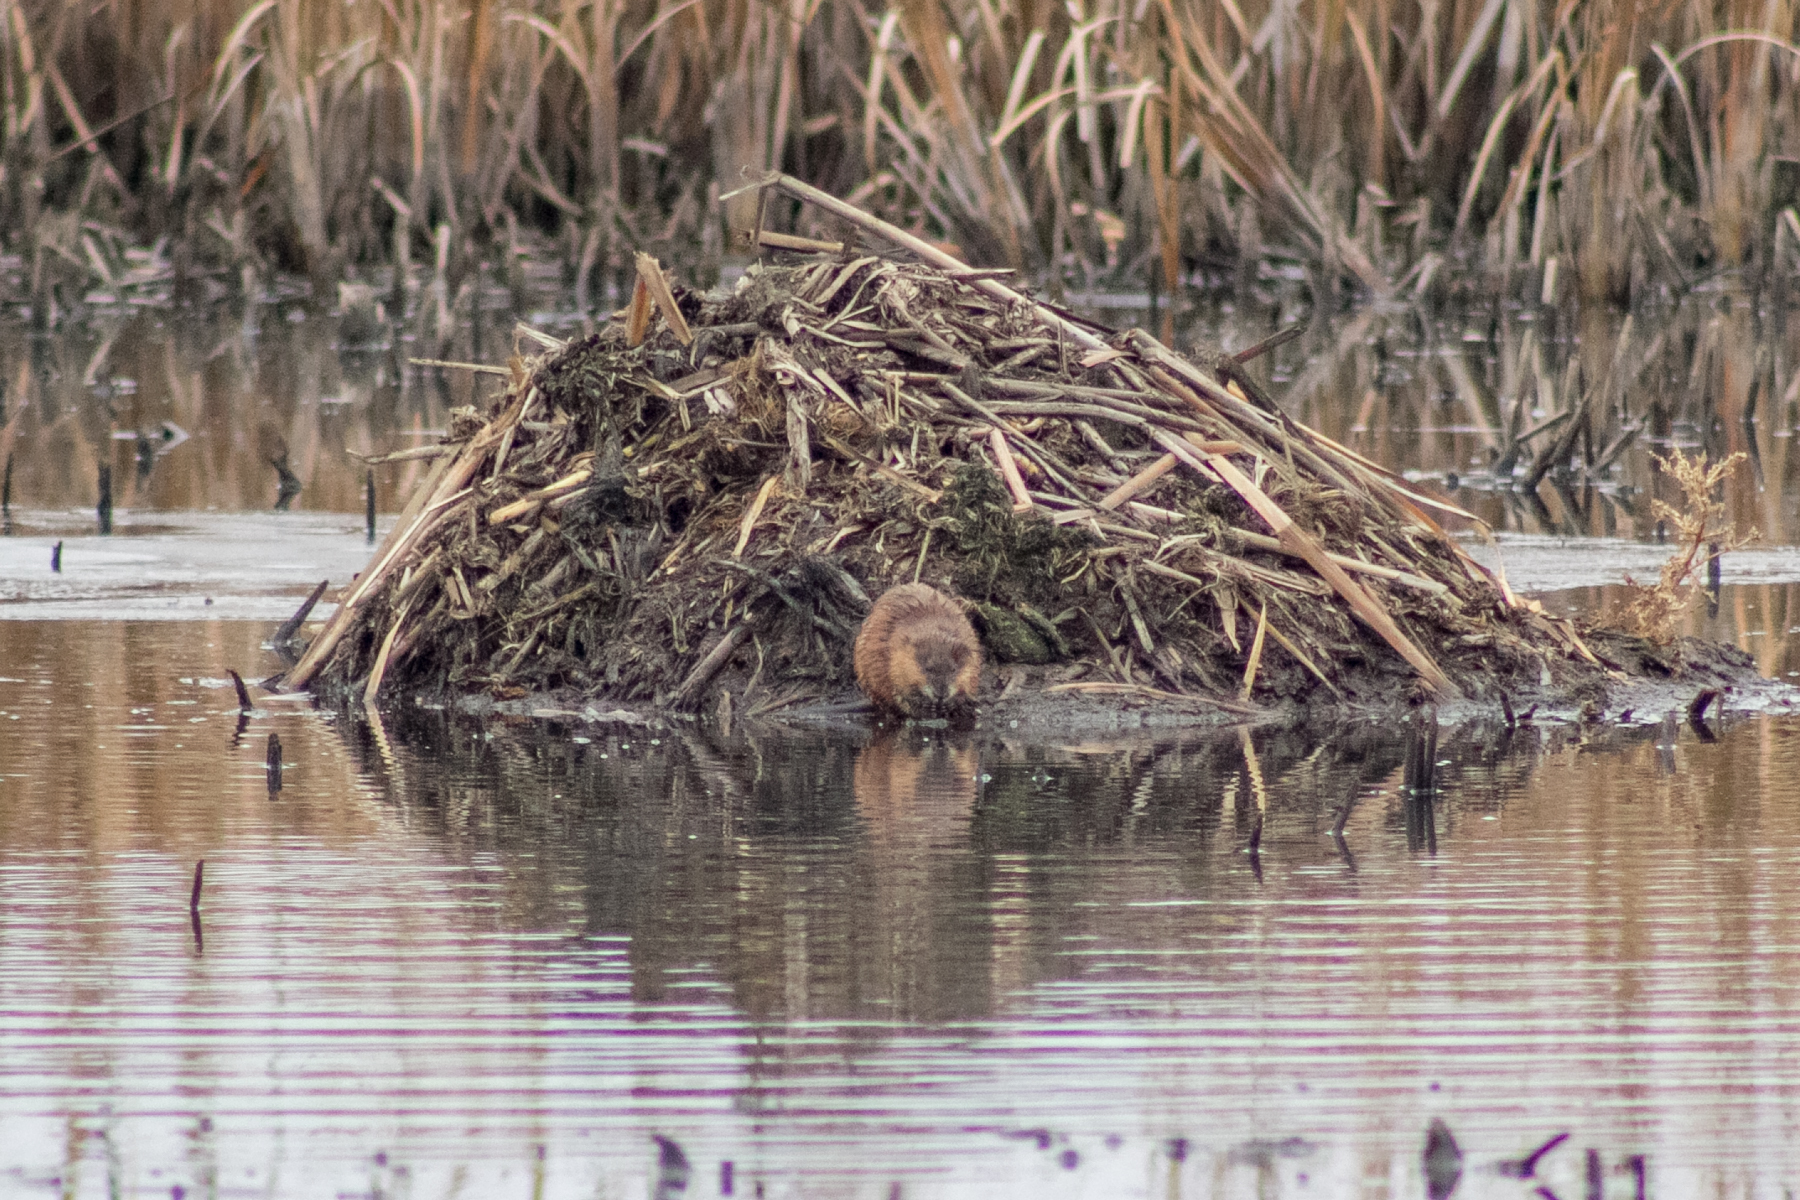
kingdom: Animalia
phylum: Chordata
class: Mammalia
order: Rodentia
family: Cricetidae
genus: Ondatra
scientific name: Ondatra zibethicus
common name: Muskrat
